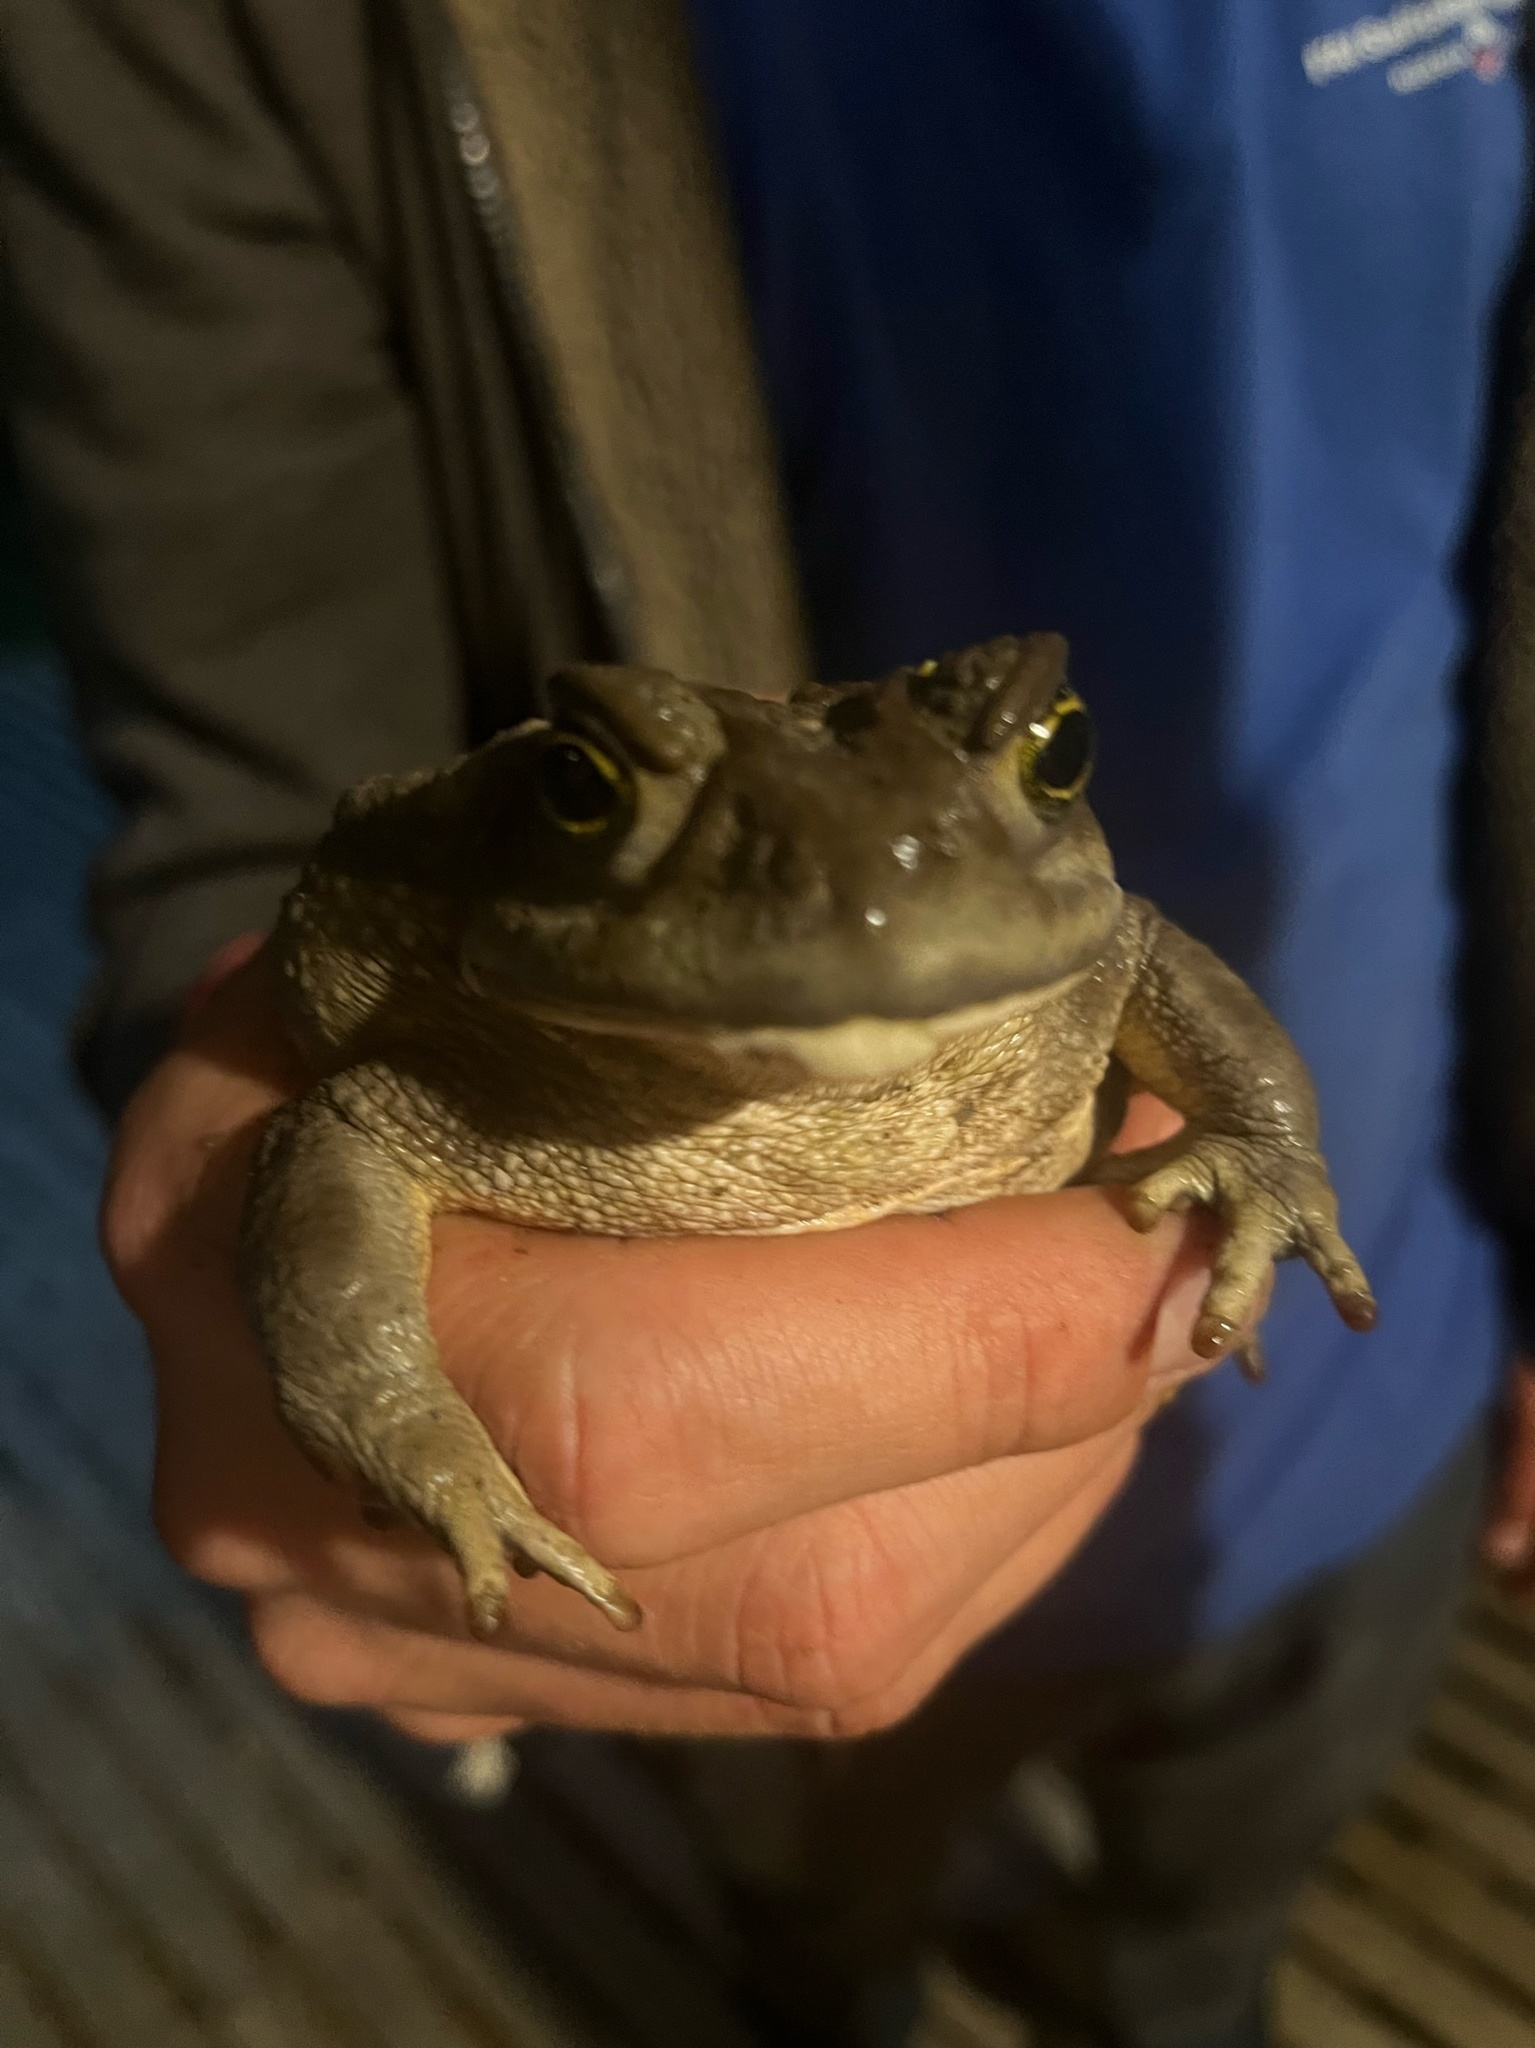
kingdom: Animalia
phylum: Chordata
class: Amphibia
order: Anura
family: Bufonidae
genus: Rhinella
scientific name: Rhinella arenarum
